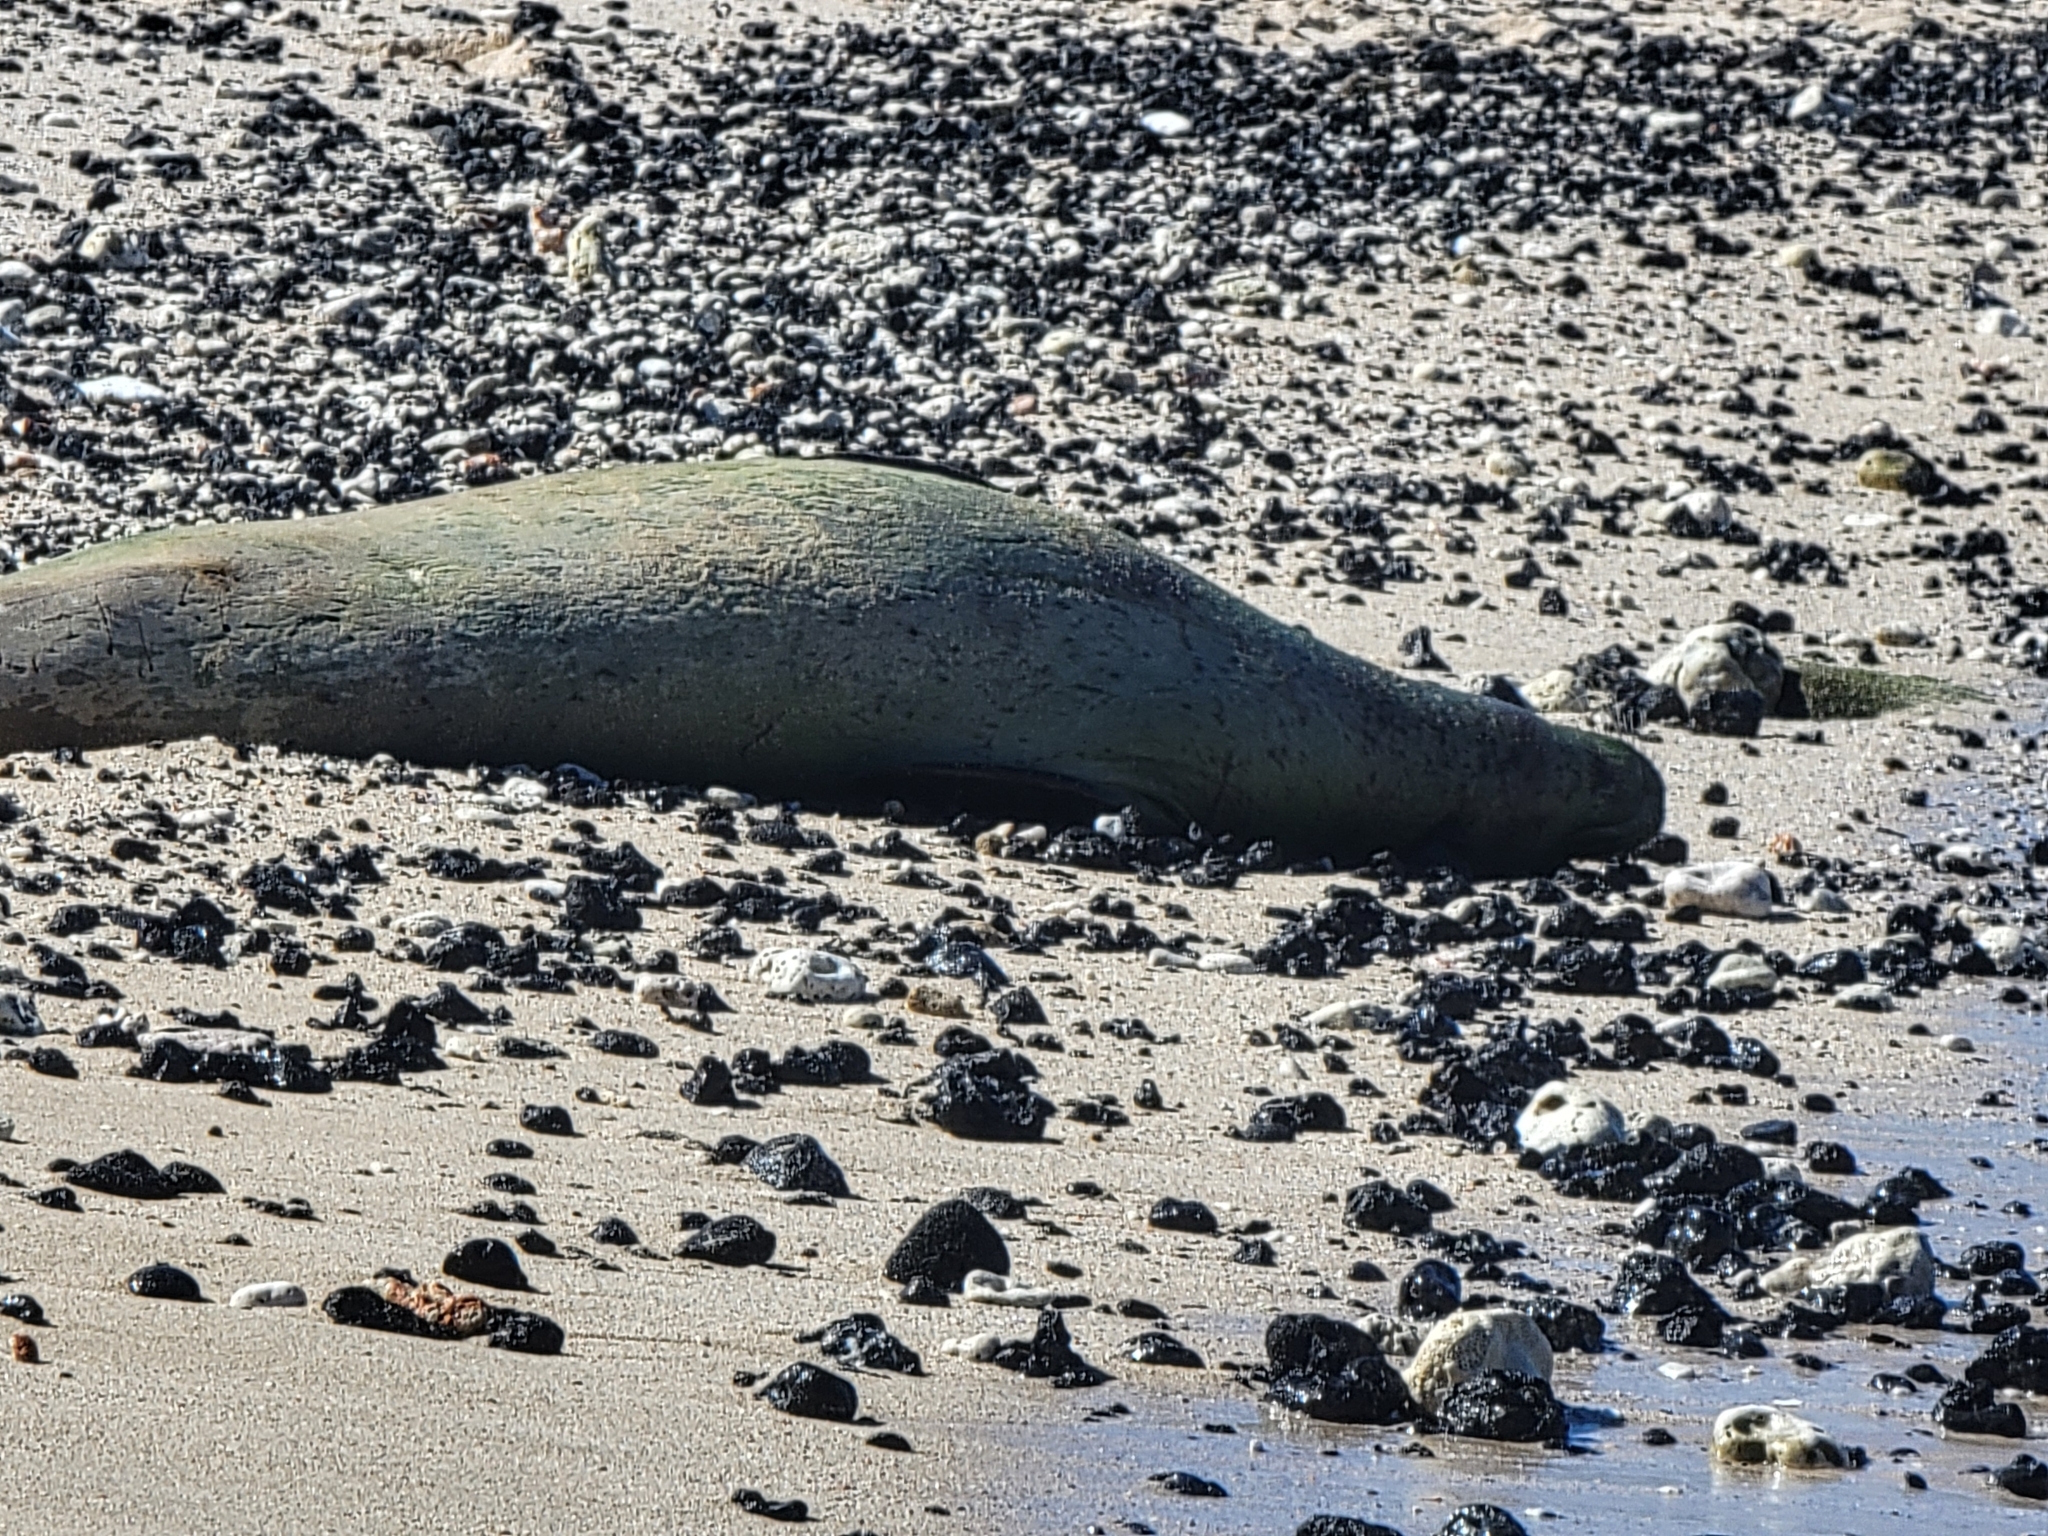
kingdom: Animalia
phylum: Chordata
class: Mammalia
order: Carnivora
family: Phocidae
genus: Neomonachus
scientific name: Neomonachus schauinslandi
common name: Hawaiian monk seal
